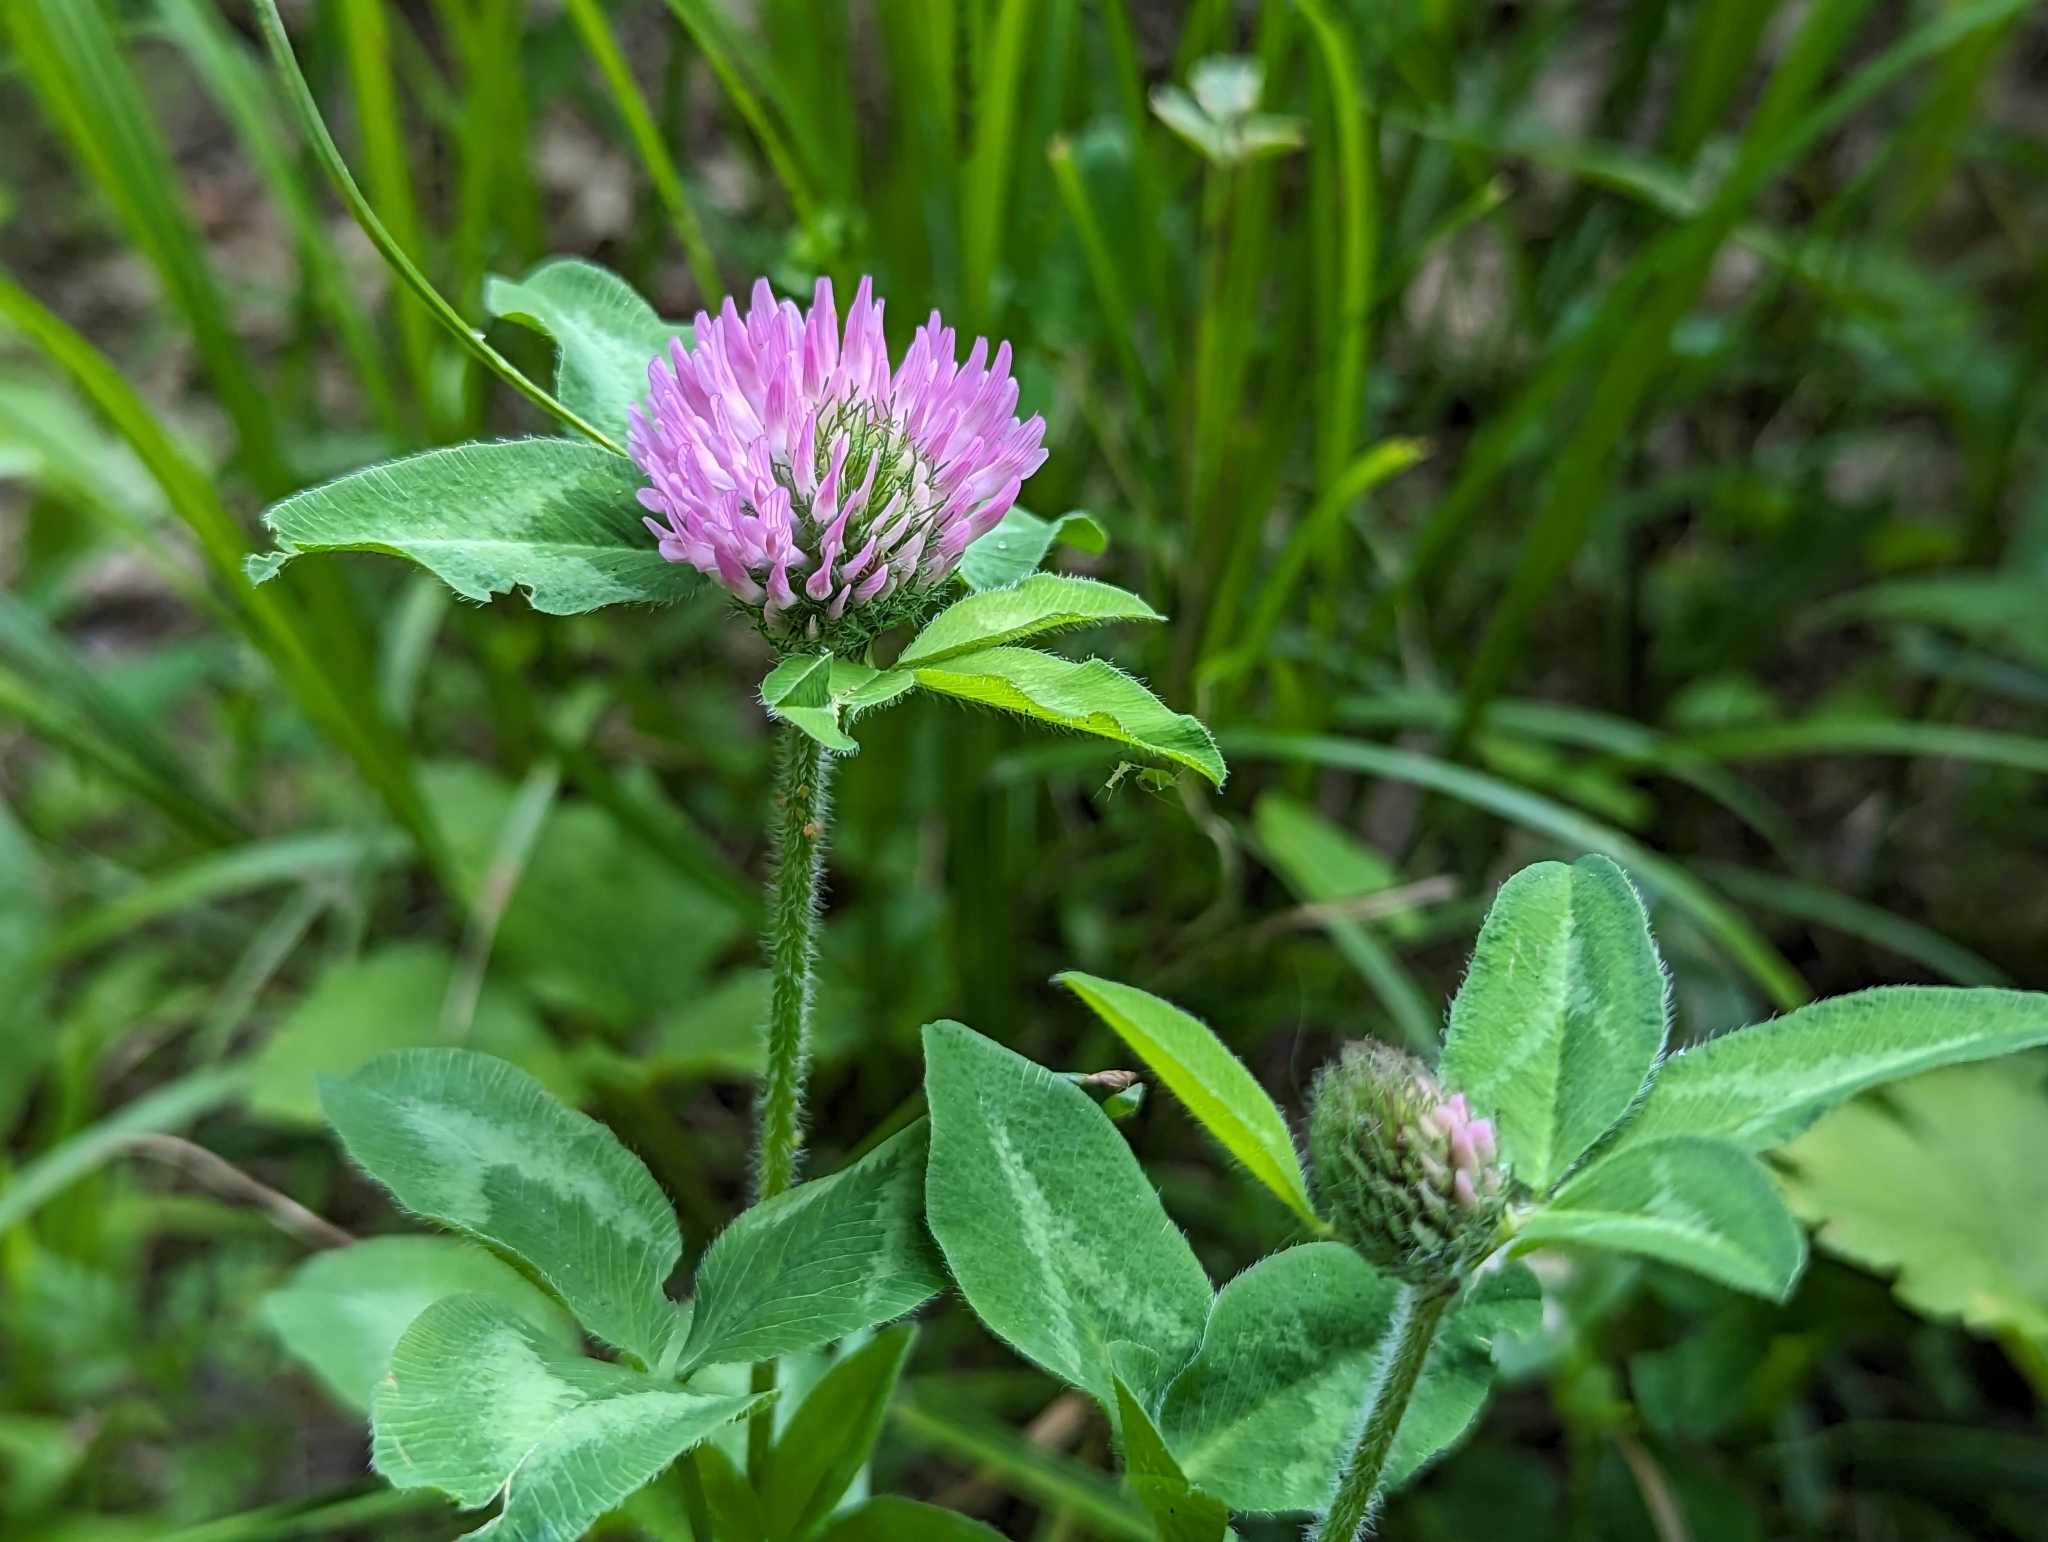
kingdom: Plantae
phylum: Tracheophyta
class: Magnoliopsida
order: Fabales
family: Fabaceae
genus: Trifolium
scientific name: Trifolium pratense
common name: Red clover
